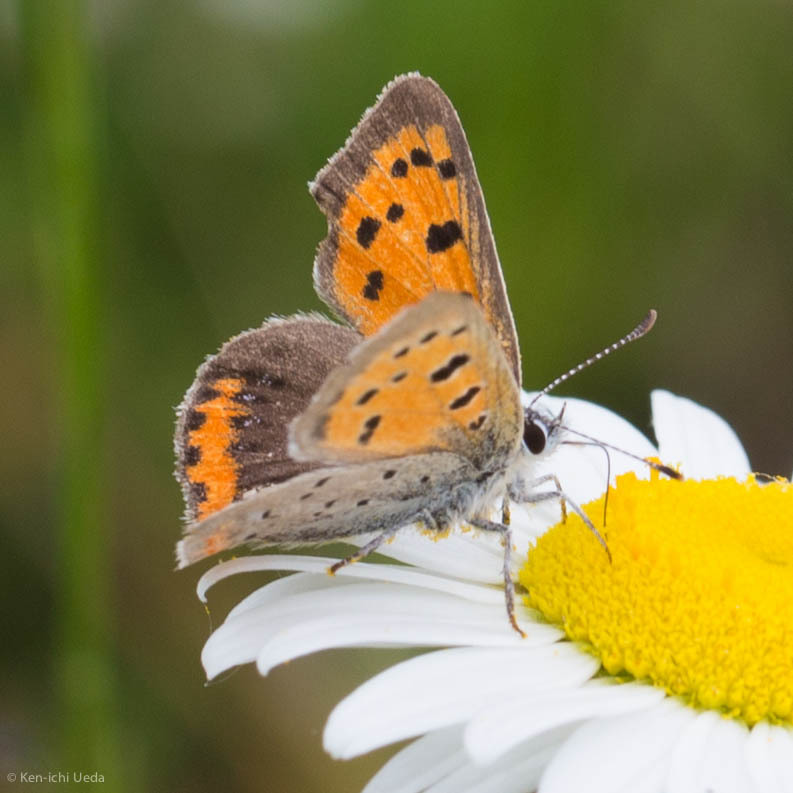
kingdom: Animalia
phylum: Arthropoda
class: Insecta
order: Lepidoptera
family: Lycaenidae
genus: Lycaena
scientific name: Lycaena hypophlaeas
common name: American copper
